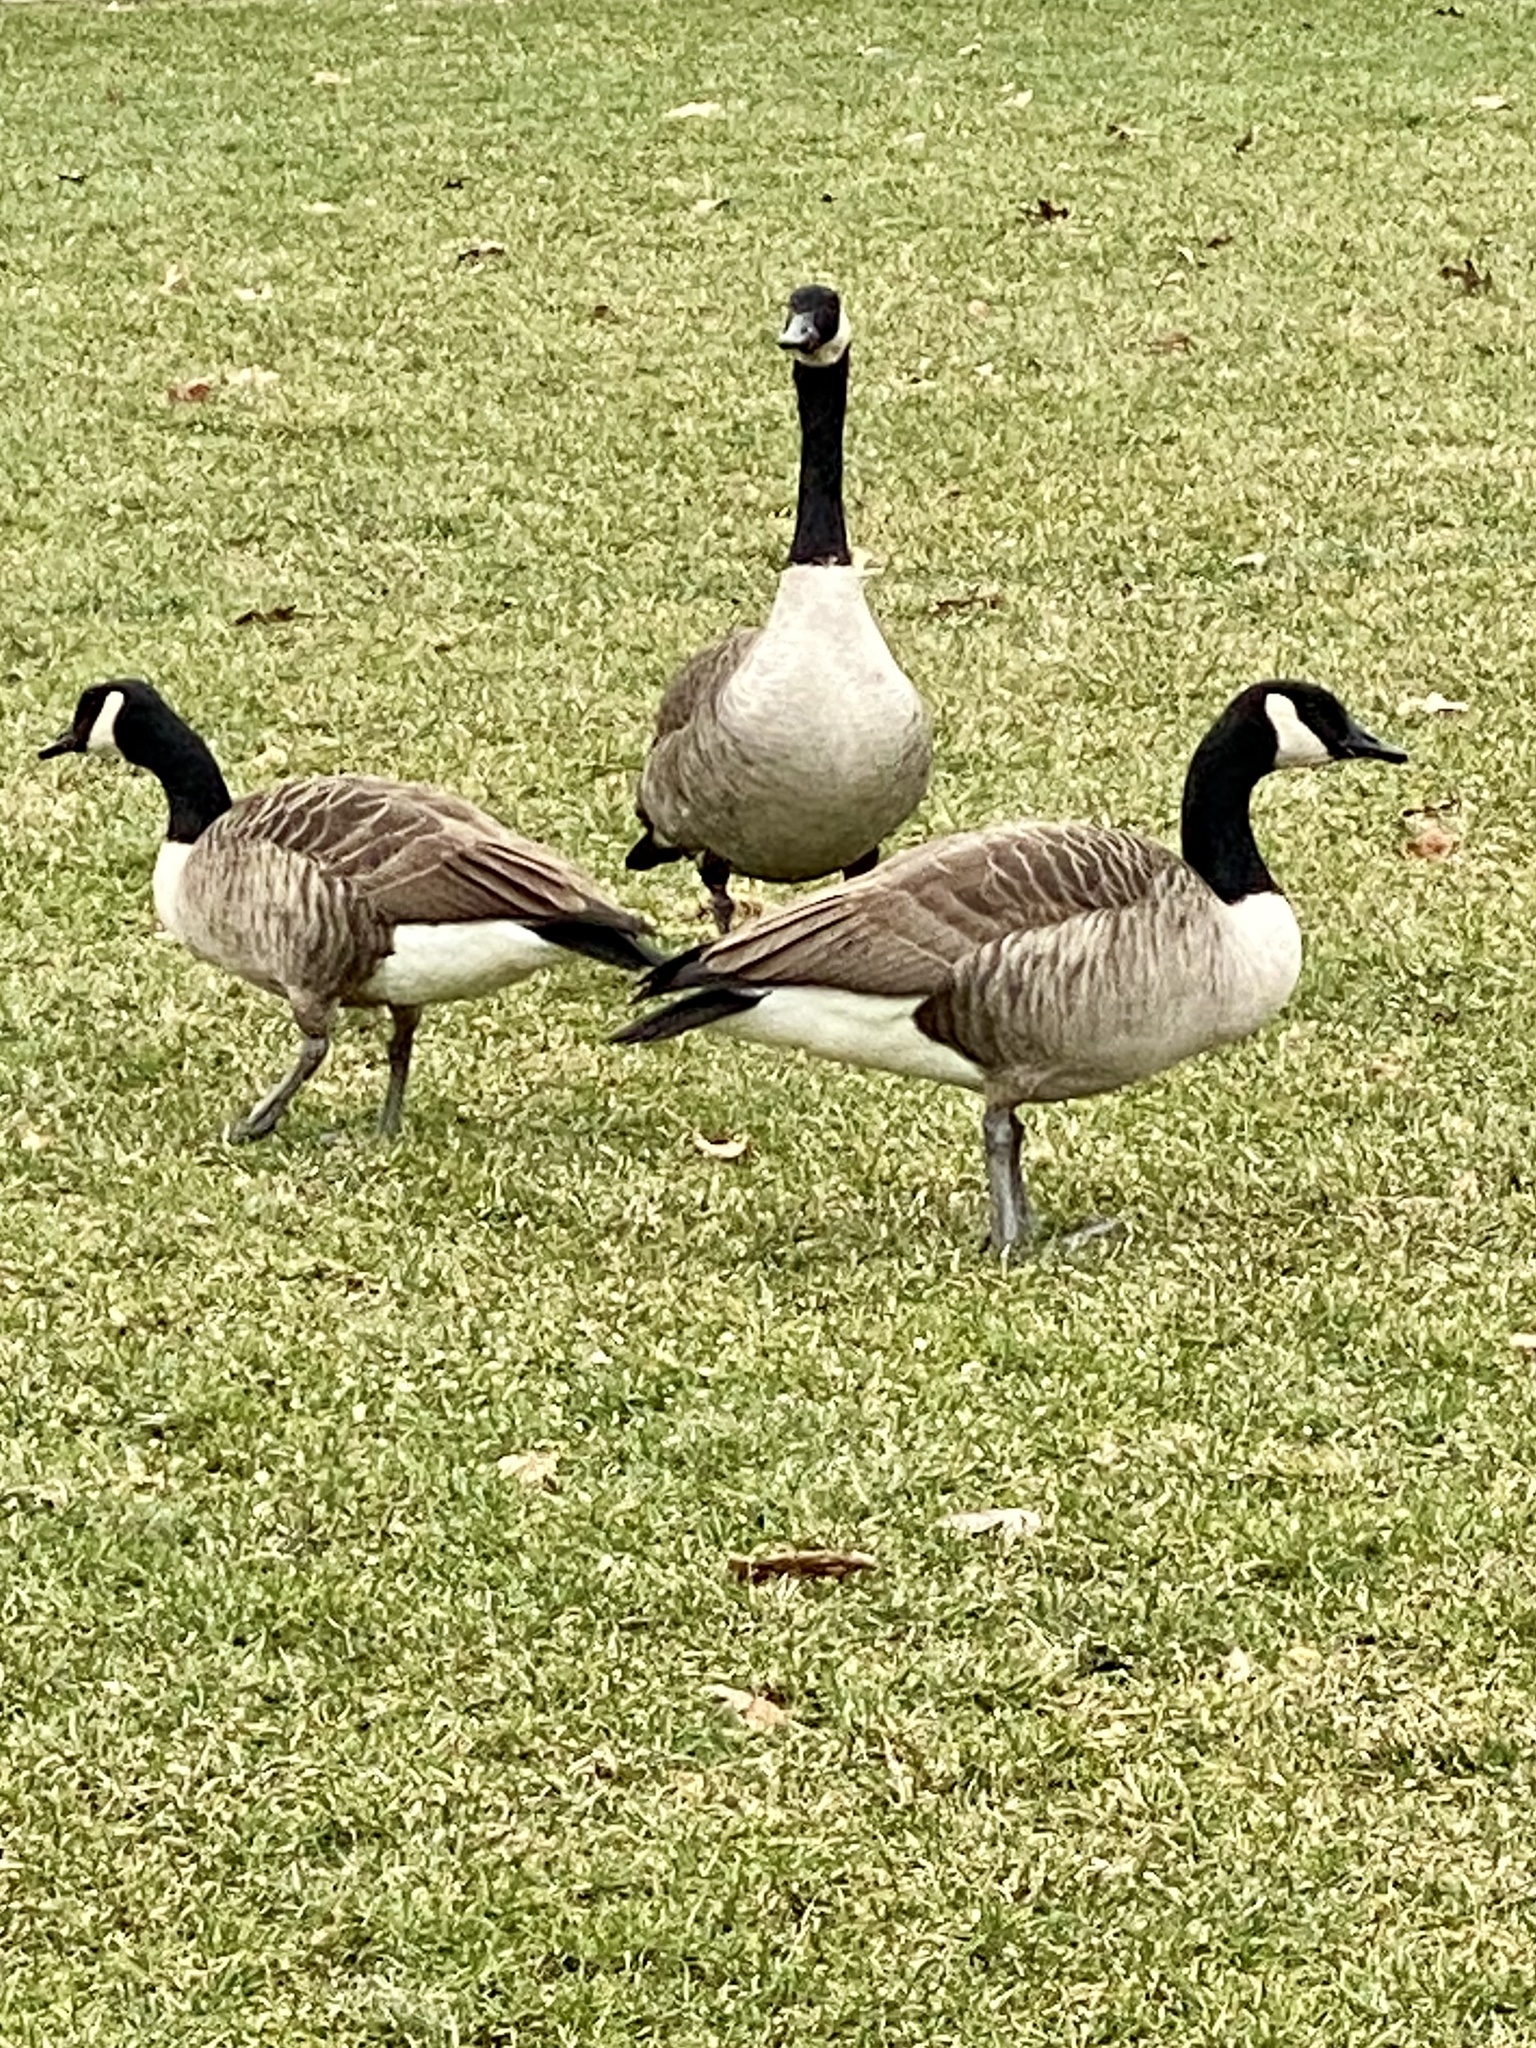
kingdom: Animalia
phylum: Chordata
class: Aves
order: Anseriformes
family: Anatidae
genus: Branta
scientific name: Branta canadensis
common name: Canada goose
